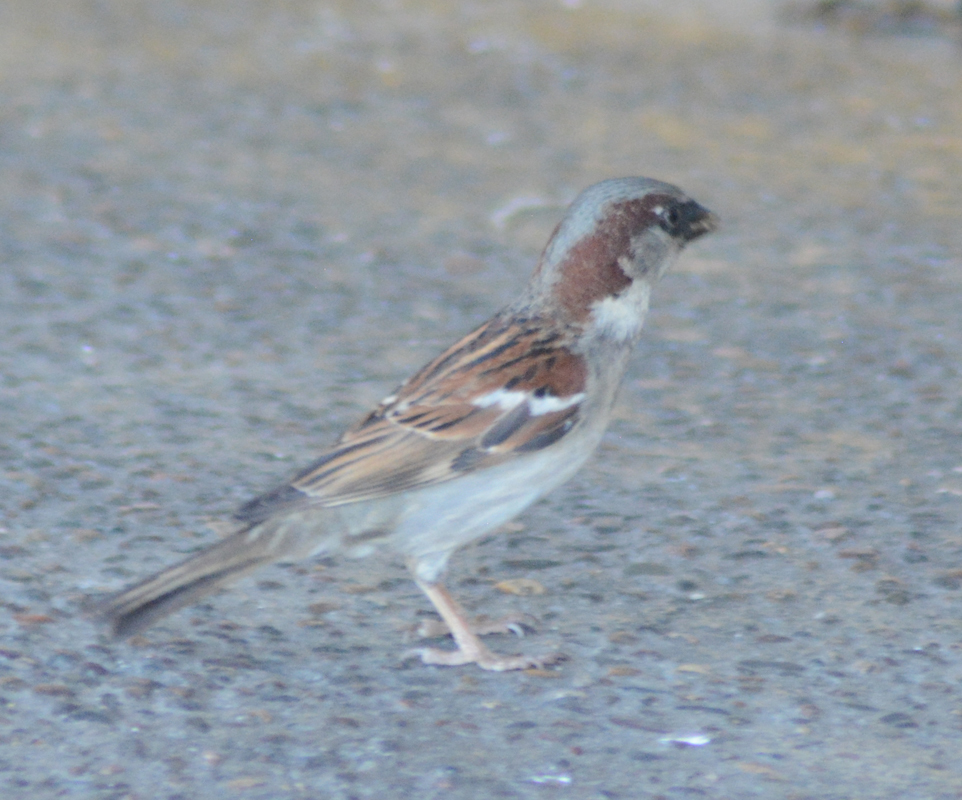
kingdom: Animalia
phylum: Chordata
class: Aves
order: Passeriformes
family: Passeridae
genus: Passer
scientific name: Passer domesticus
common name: House sparrow
